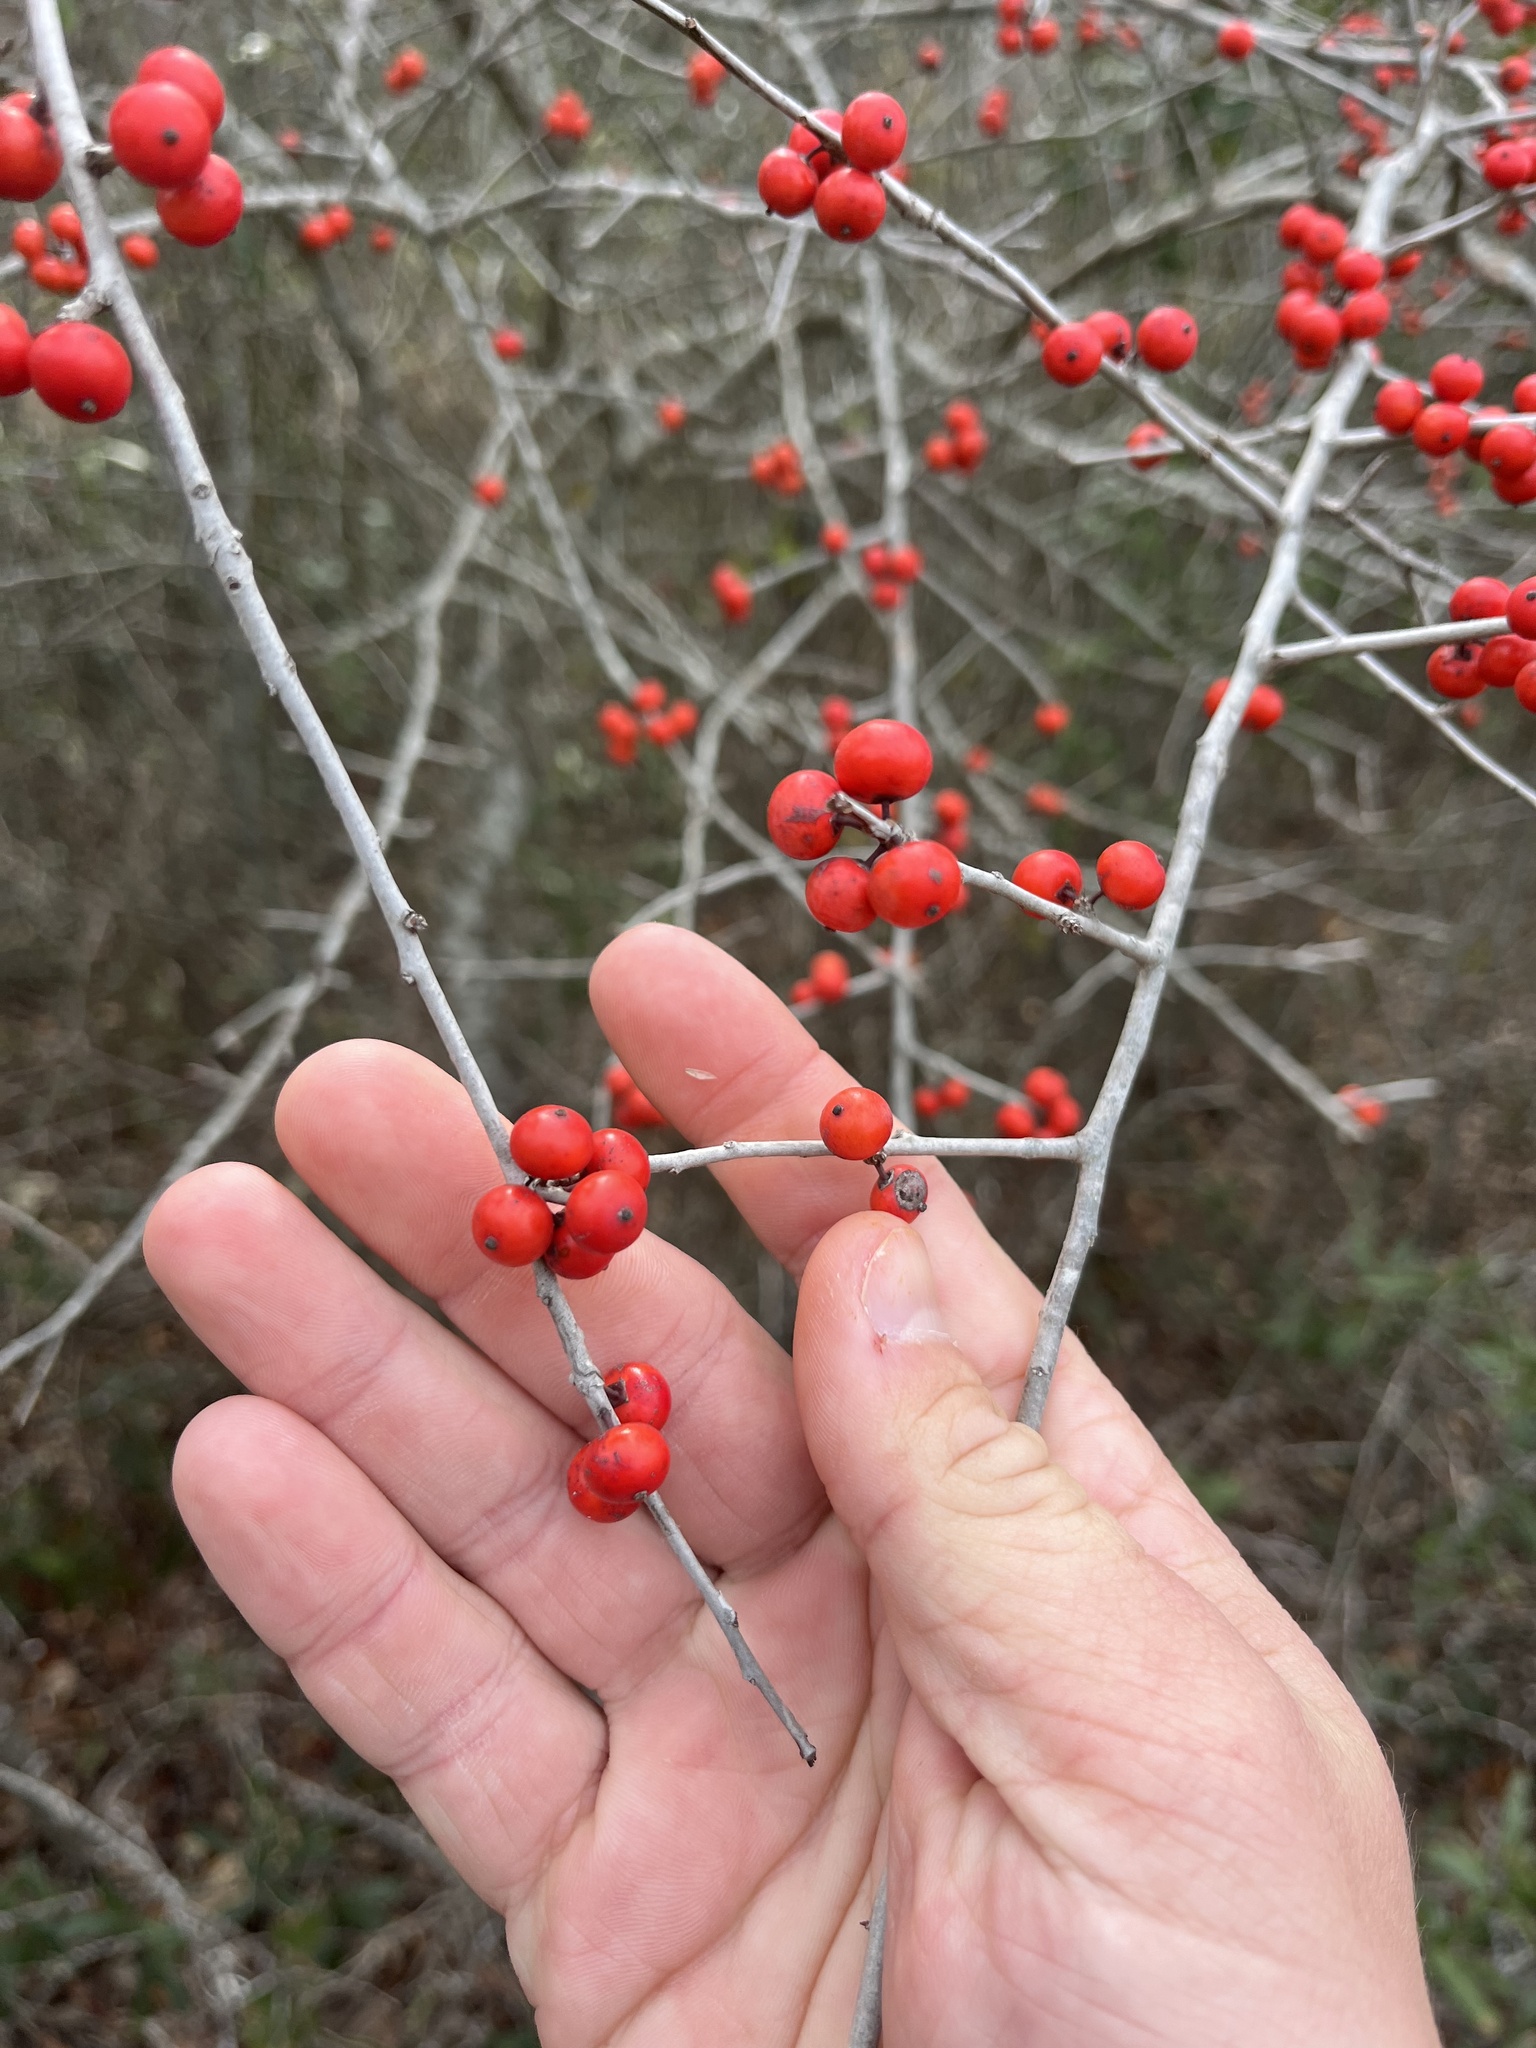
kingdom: Plantae
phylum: Tracheophyta
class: Magnoliopsida
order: Aquifoliales
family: Aquifoliaceae
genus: Ilex
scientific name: Ilex decidua
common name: Possum-haw
